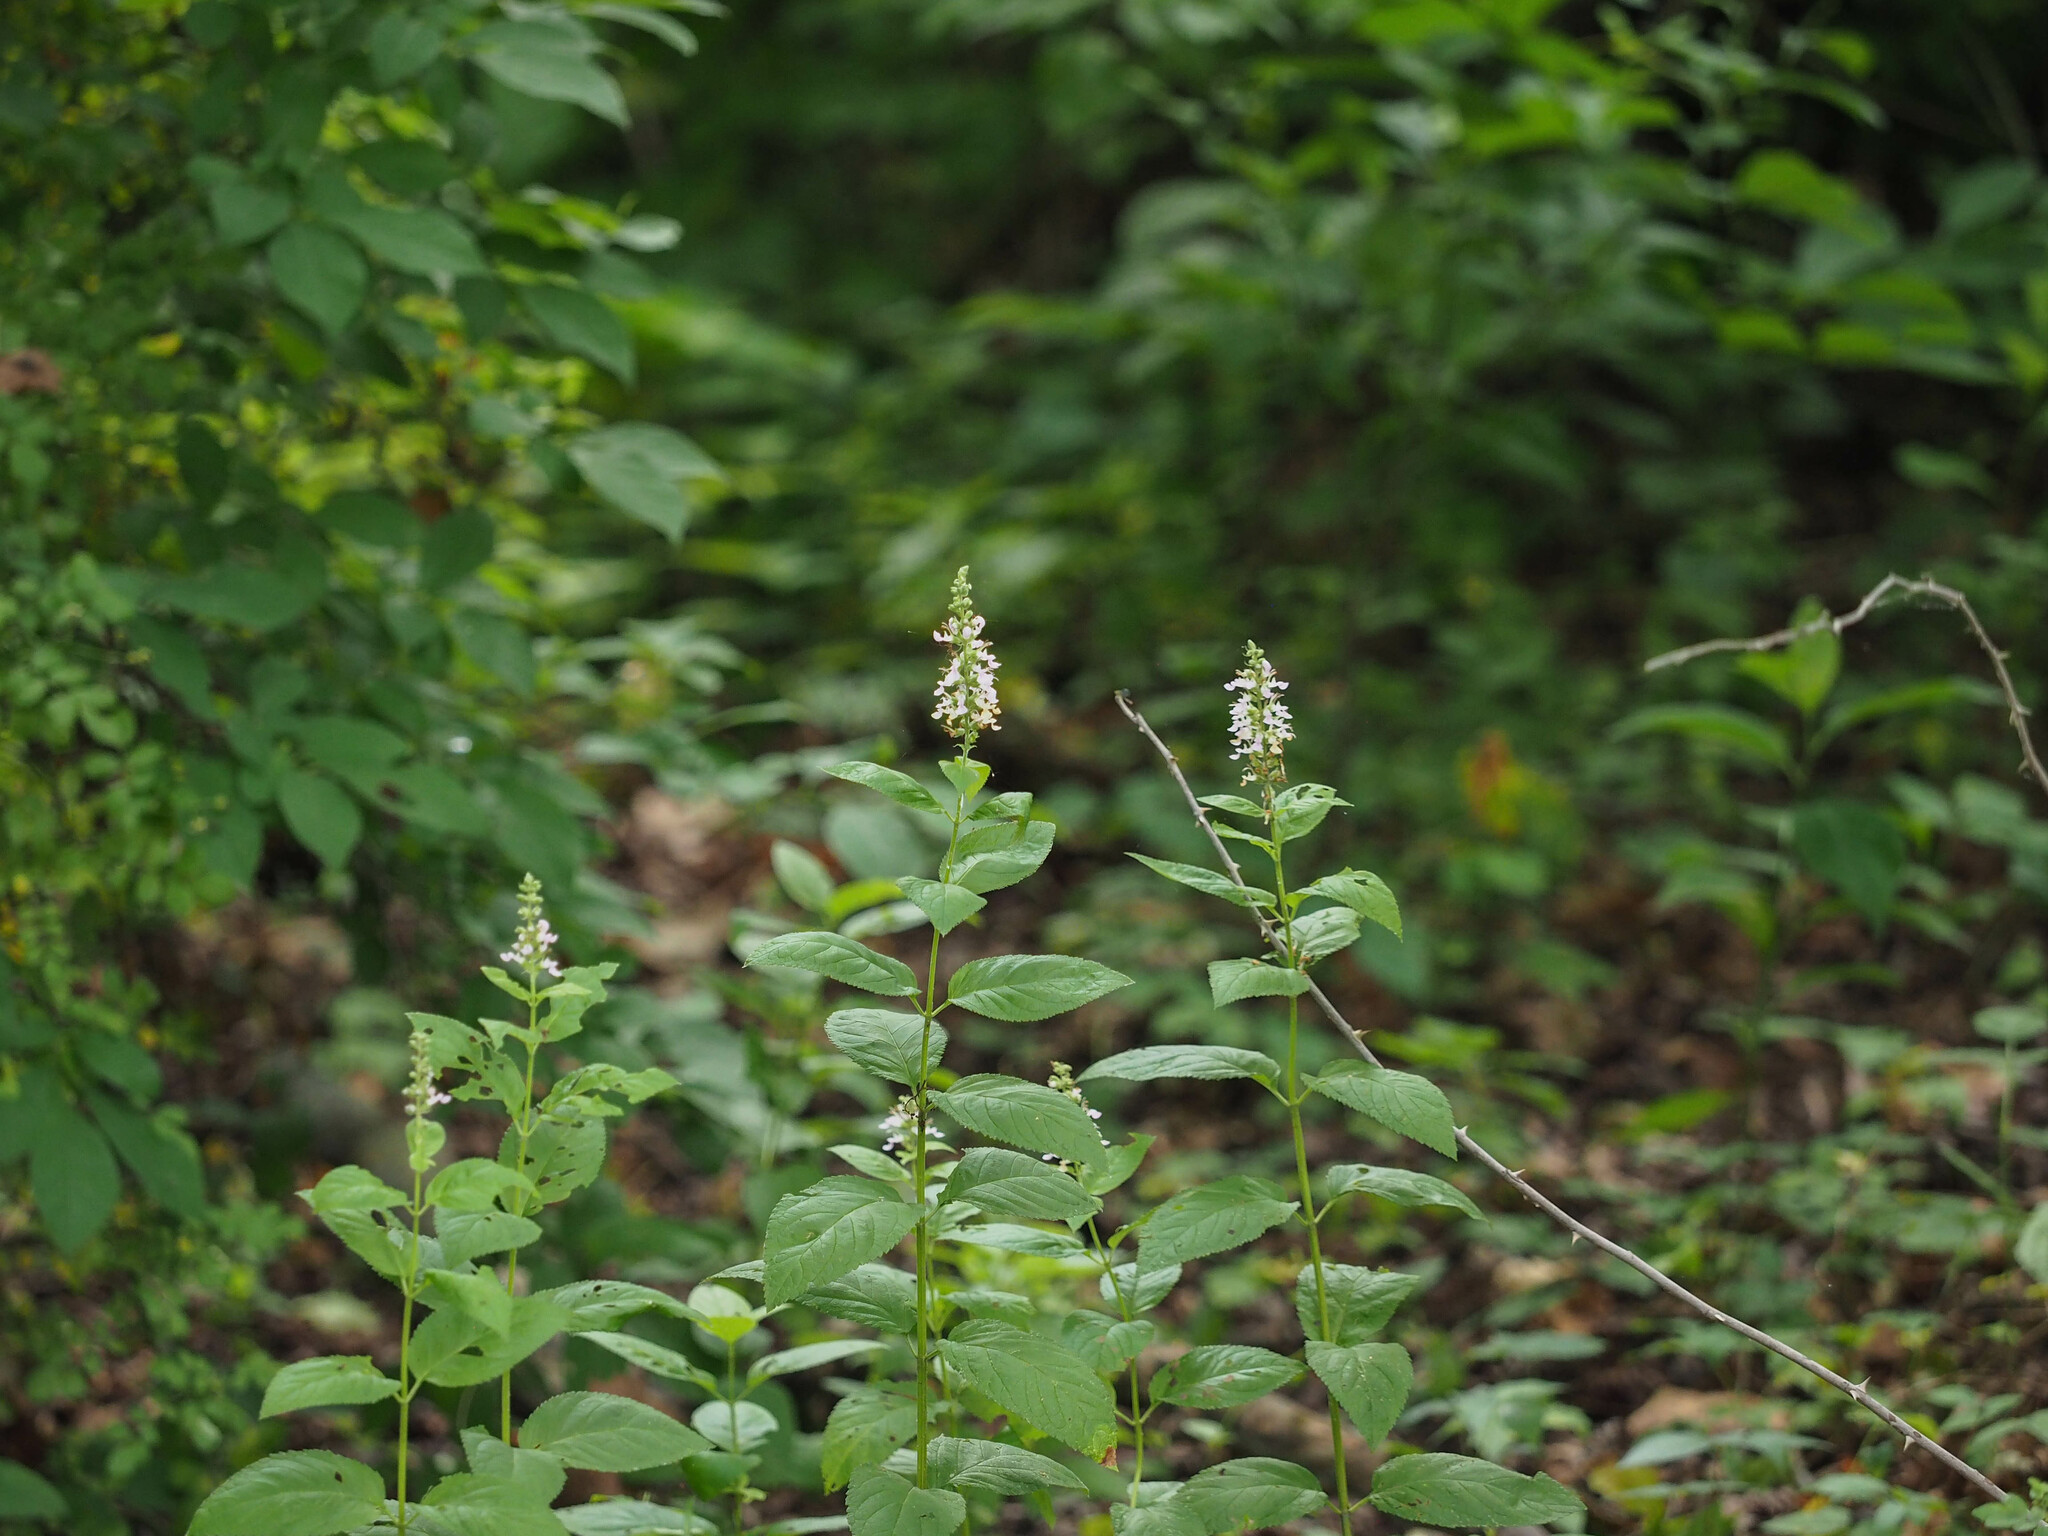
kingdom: Plantae
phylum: Tracheophyta
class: Magnoliopsida
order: Lamiales
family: Lamiaceae
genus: Teucrium
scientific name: Teucrium canadense
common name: American germander
